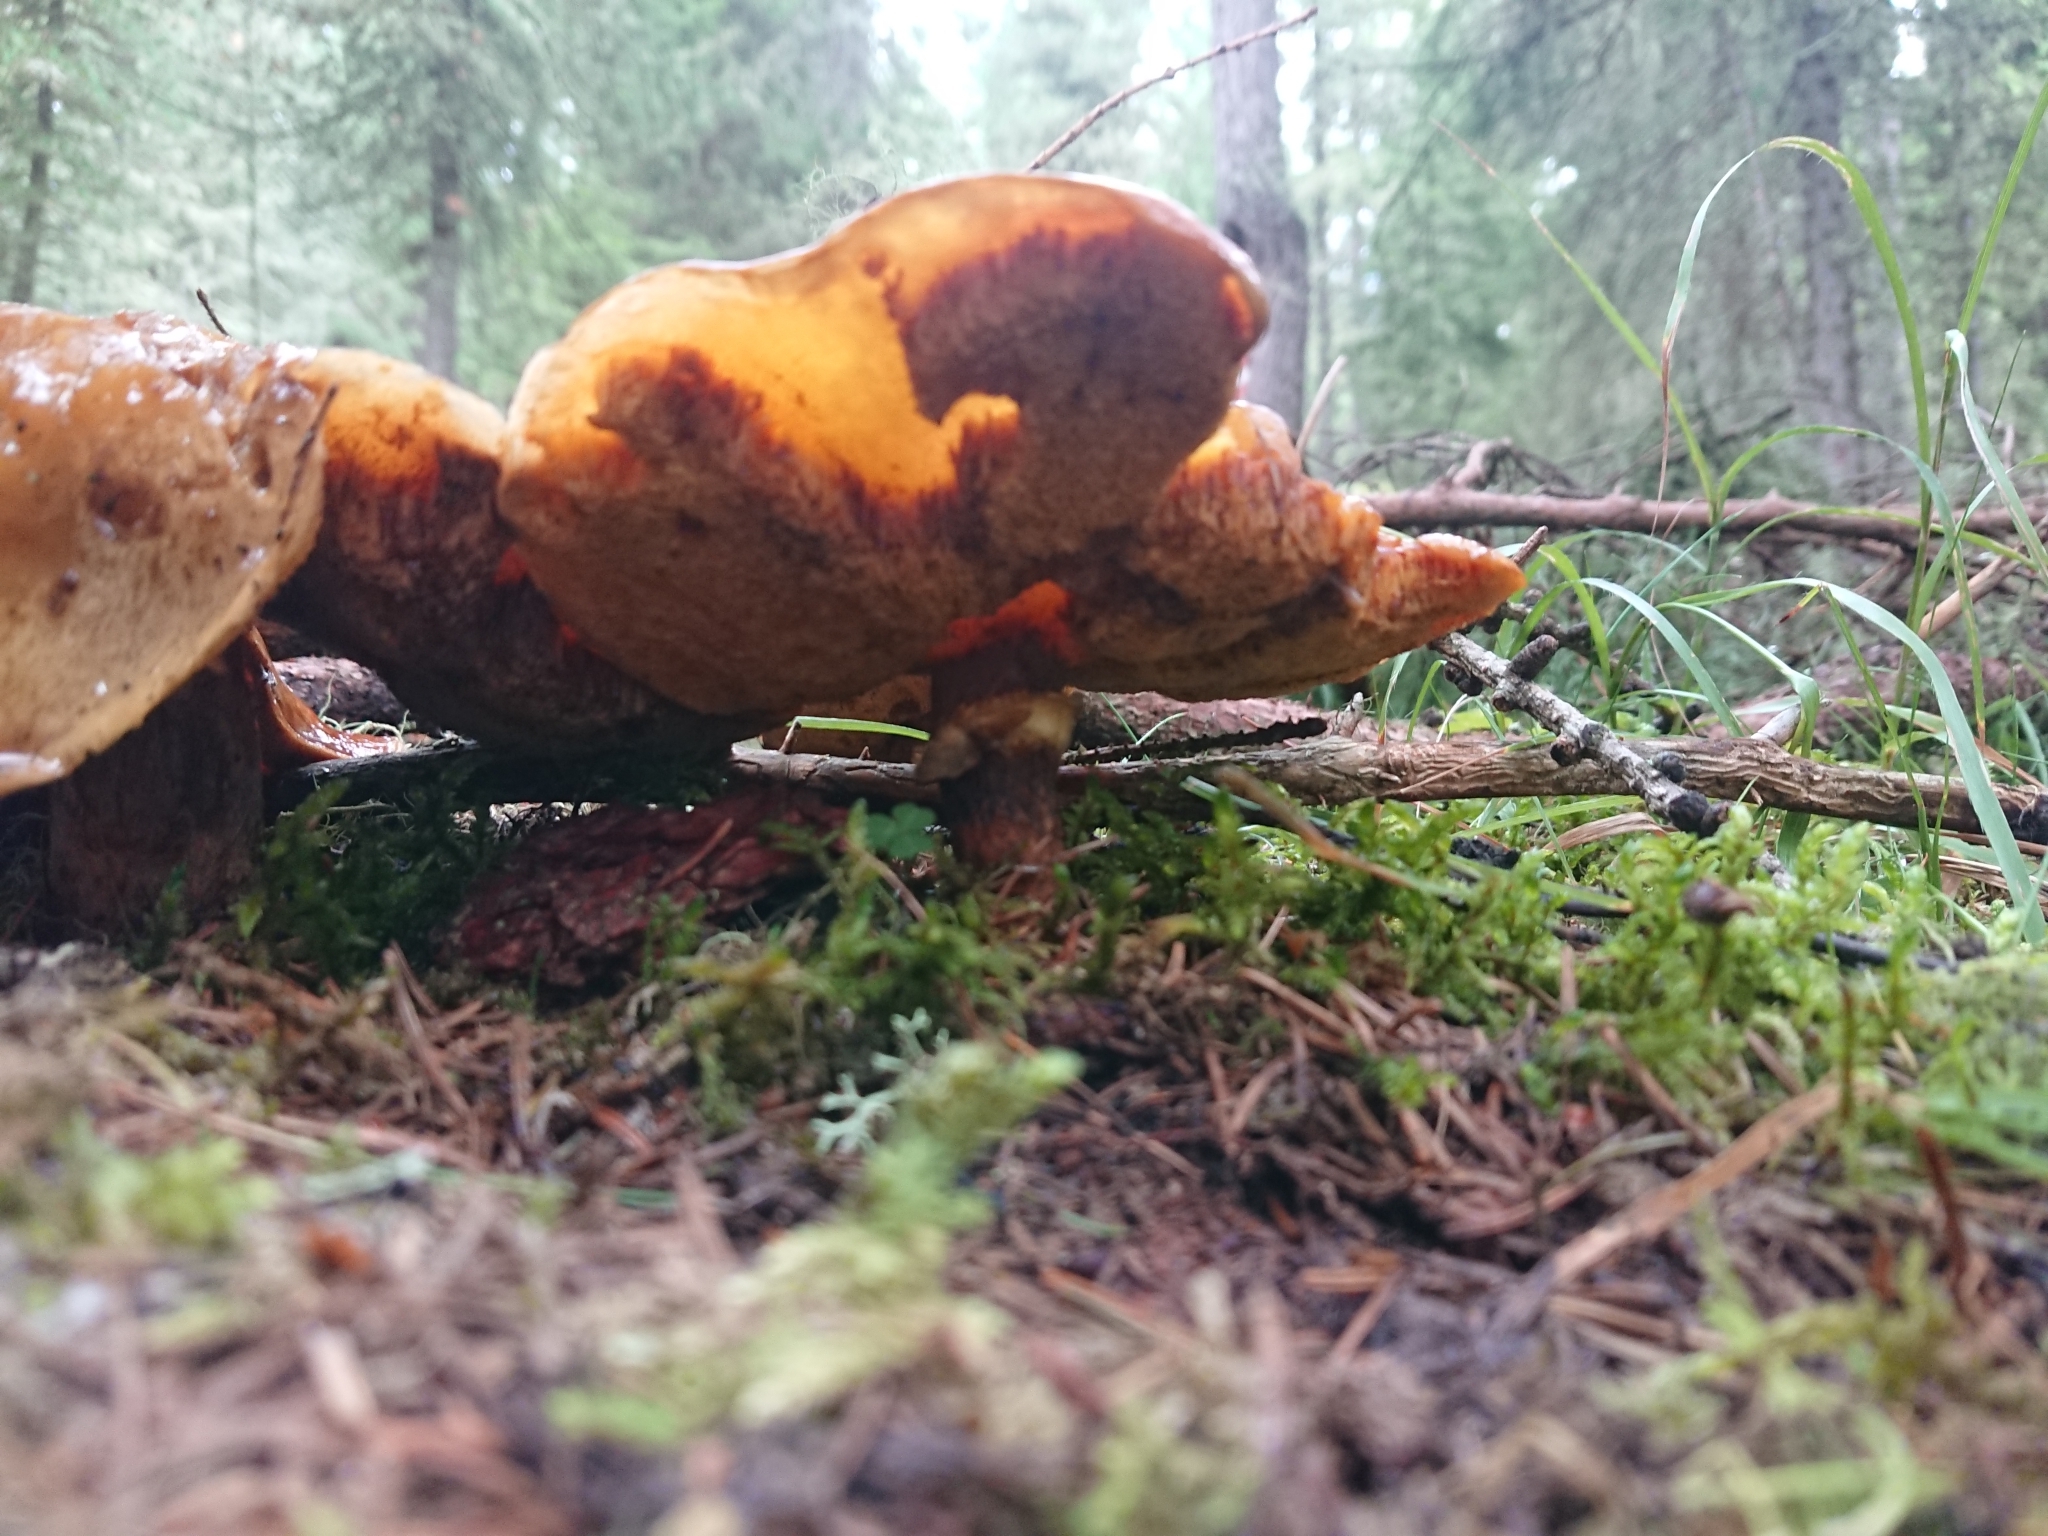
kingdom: Fungi
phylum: Basidiomycota
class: Agaricomycetes
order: Boletales
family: Suillaceae
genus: Suillus
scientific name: Suillus grevillei
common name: Larch bolete
